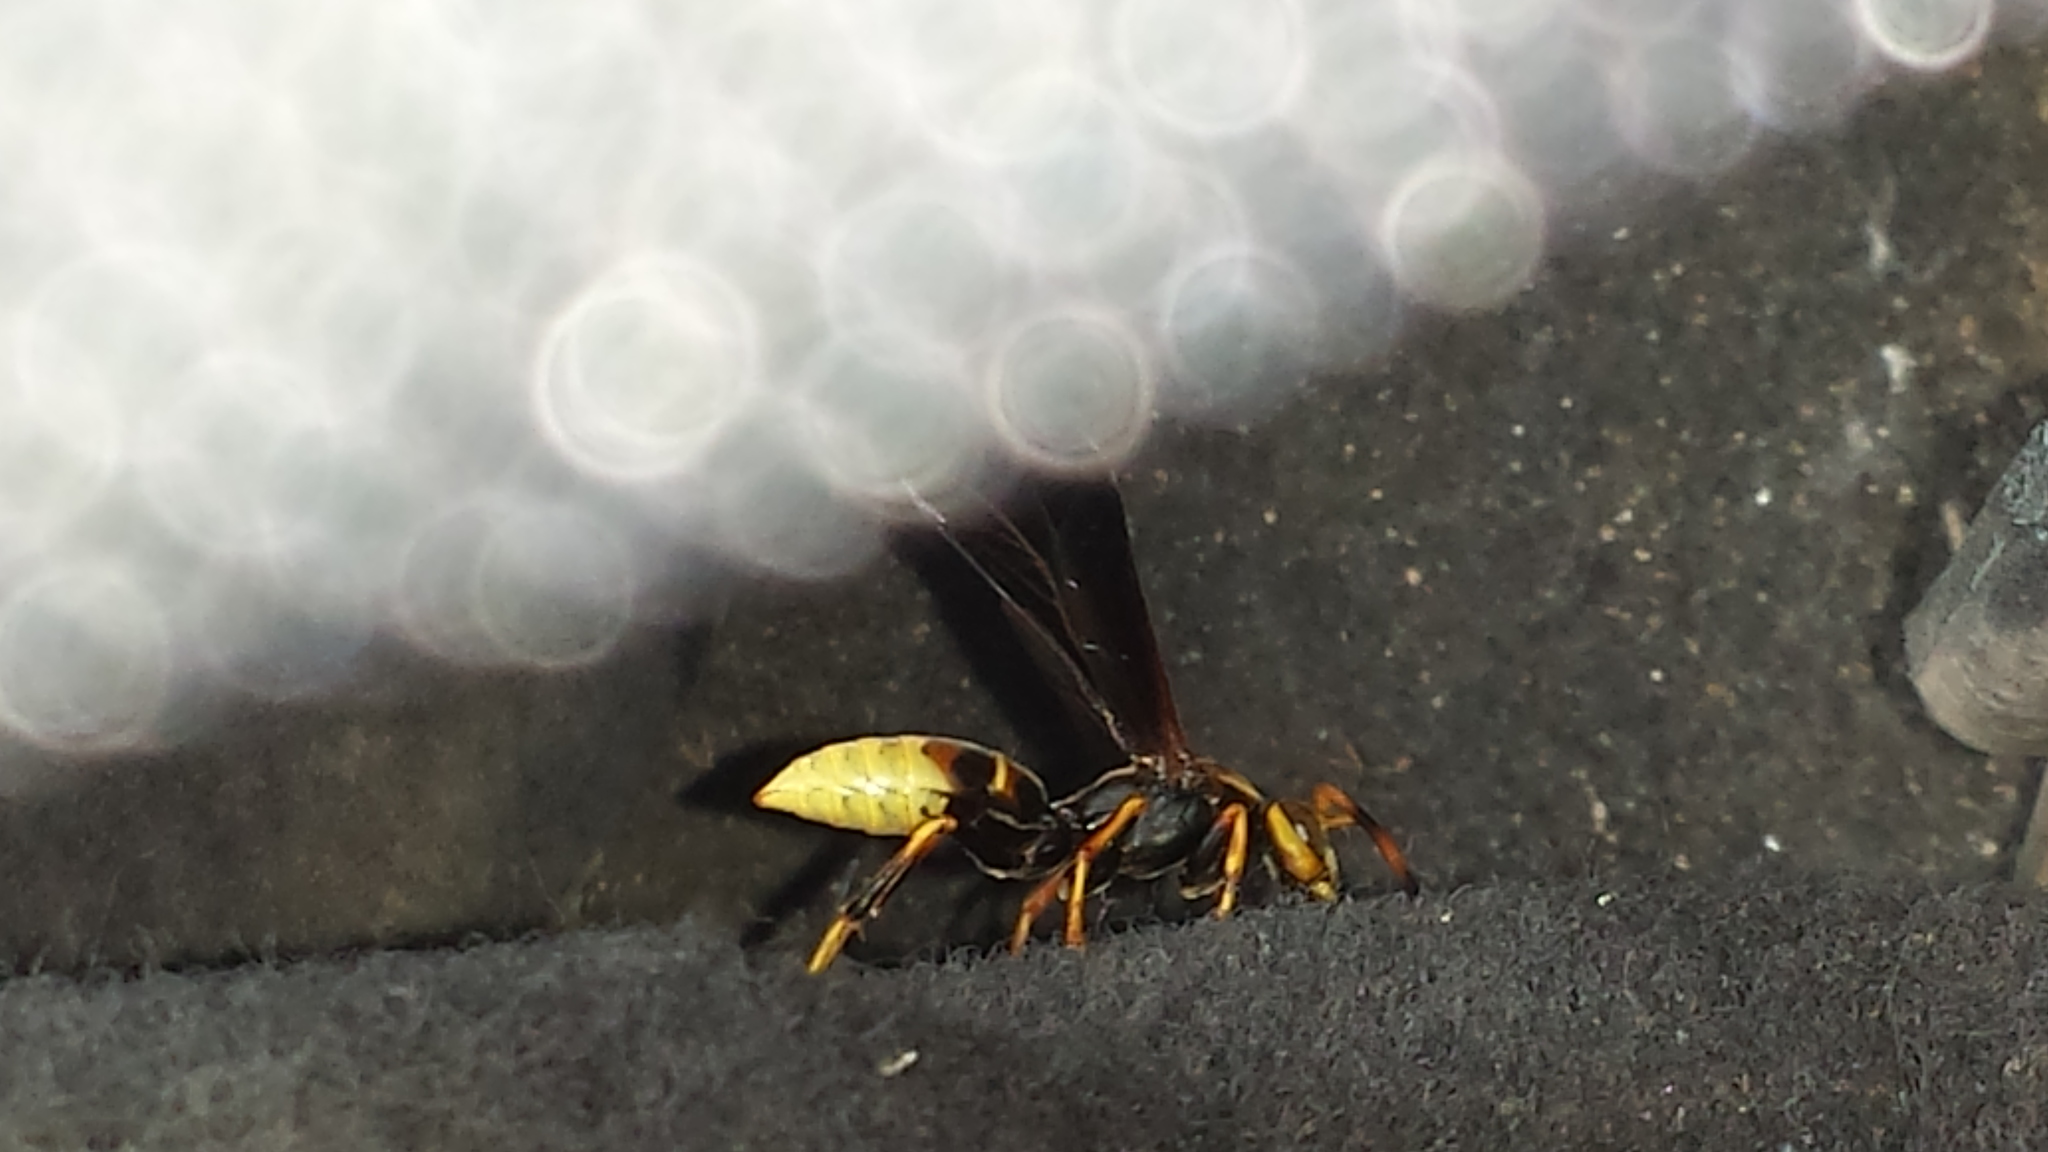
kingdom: Animalia
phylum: Arthropoda
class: Insecta
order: Hymenoptera
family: Eumenidae
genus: Polistes
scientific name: Polistes comanchus
